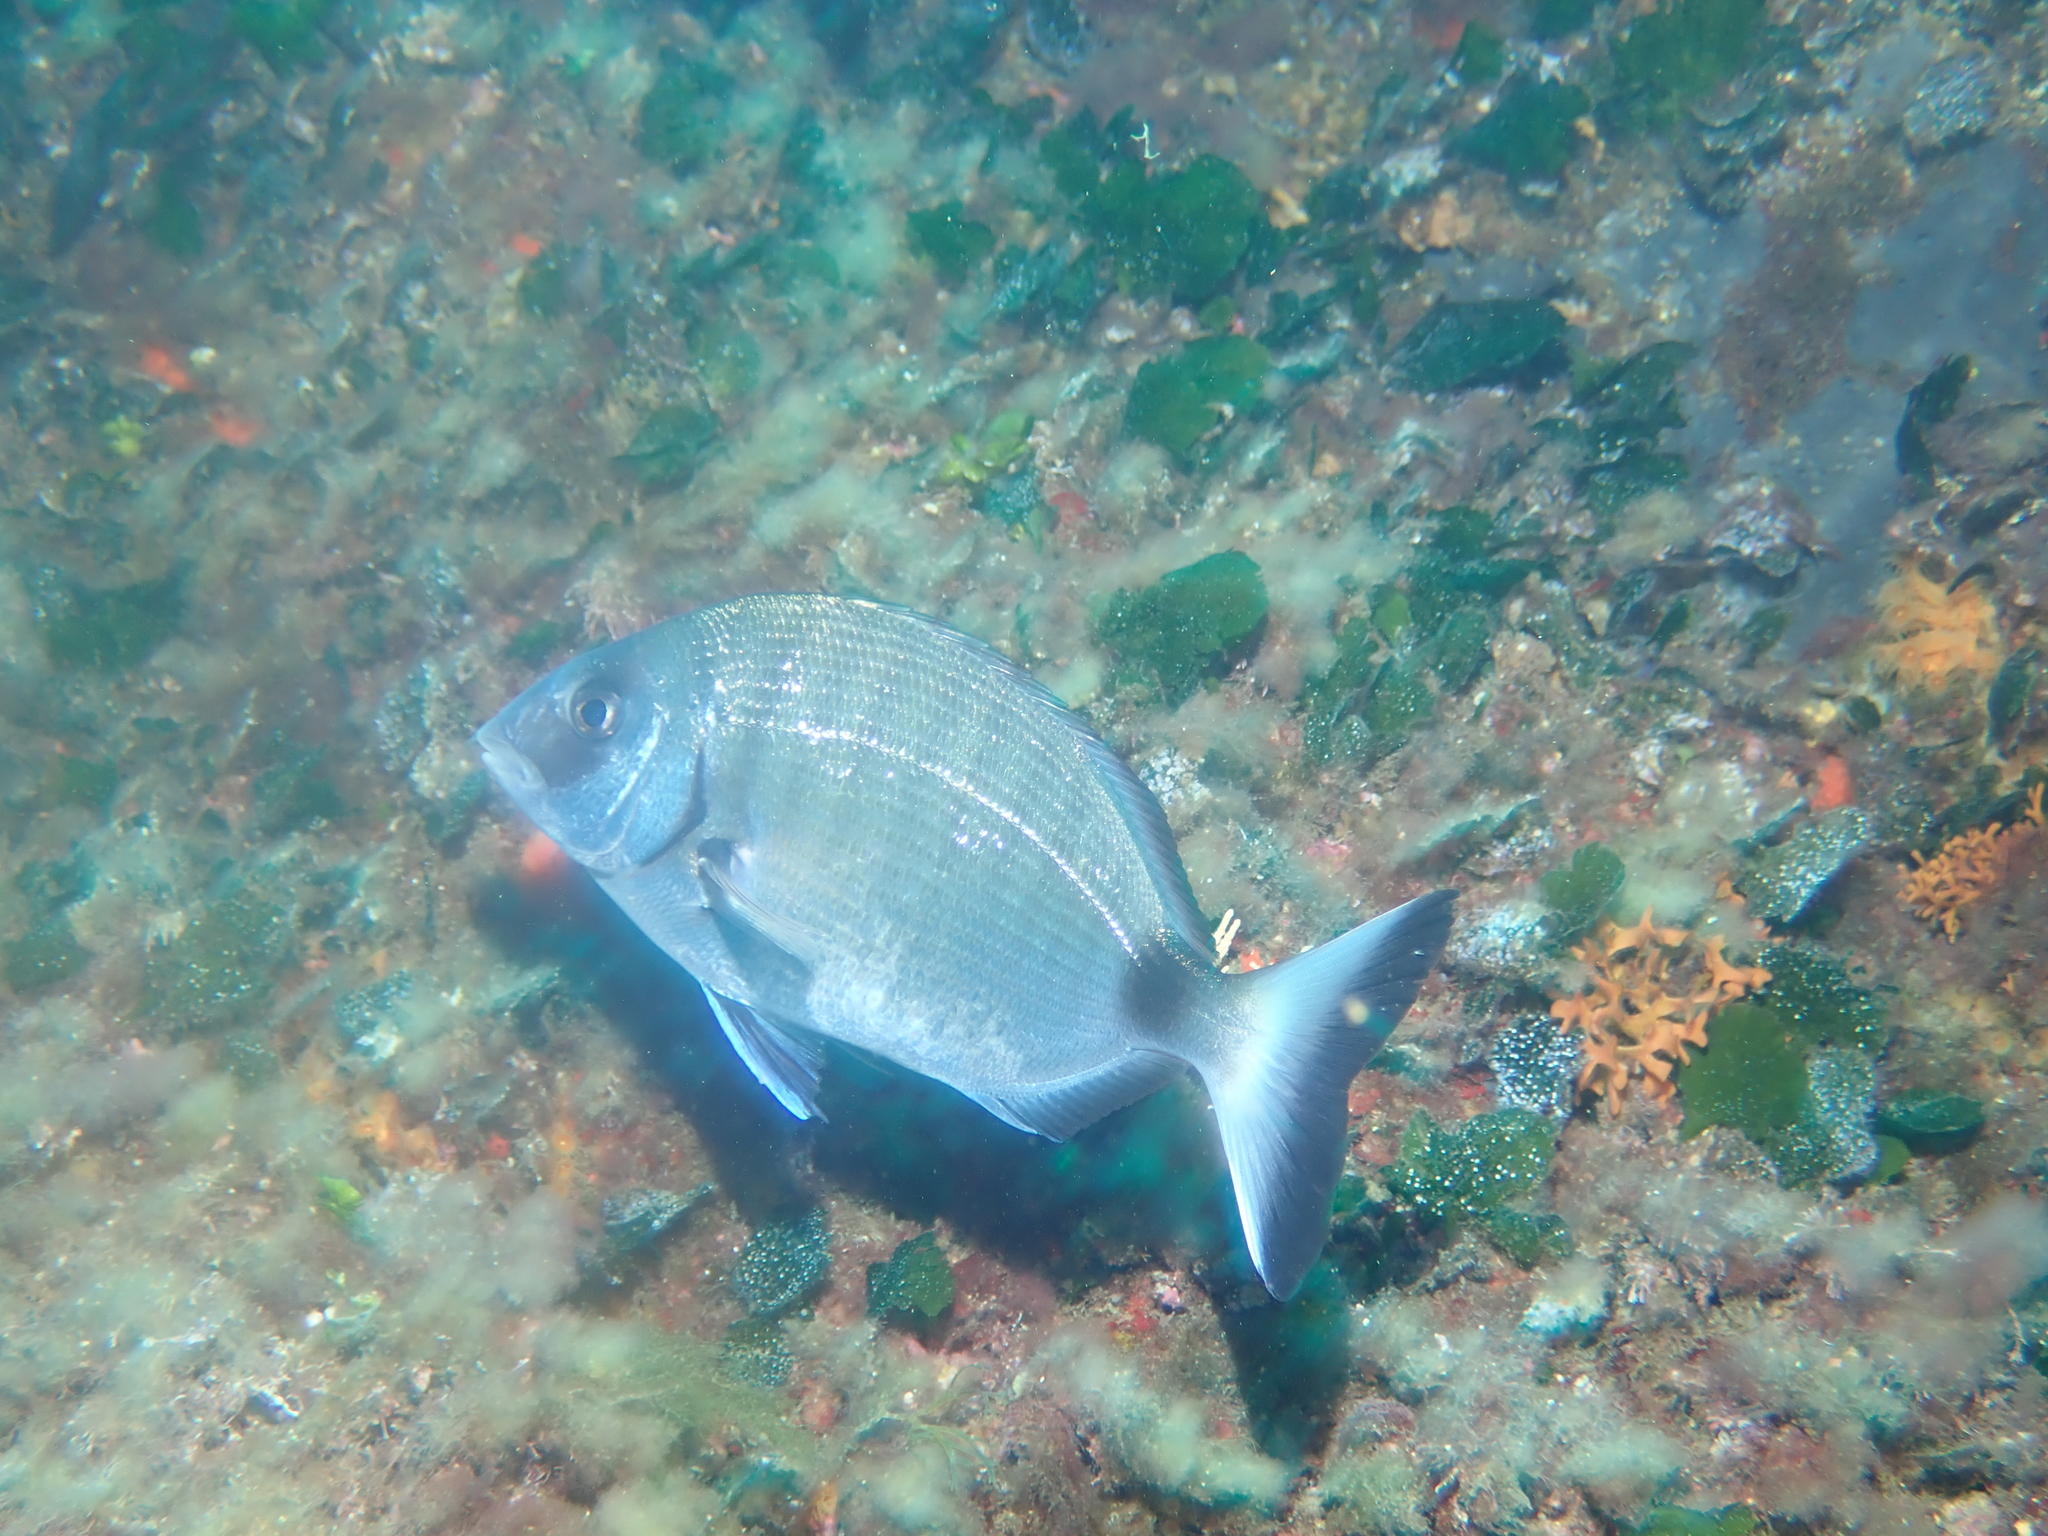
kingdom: Animalia
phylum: Chordata
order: Perciformes
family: Sparidae
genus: Diplodus
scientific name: Diplodus sargus
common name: White seabream
